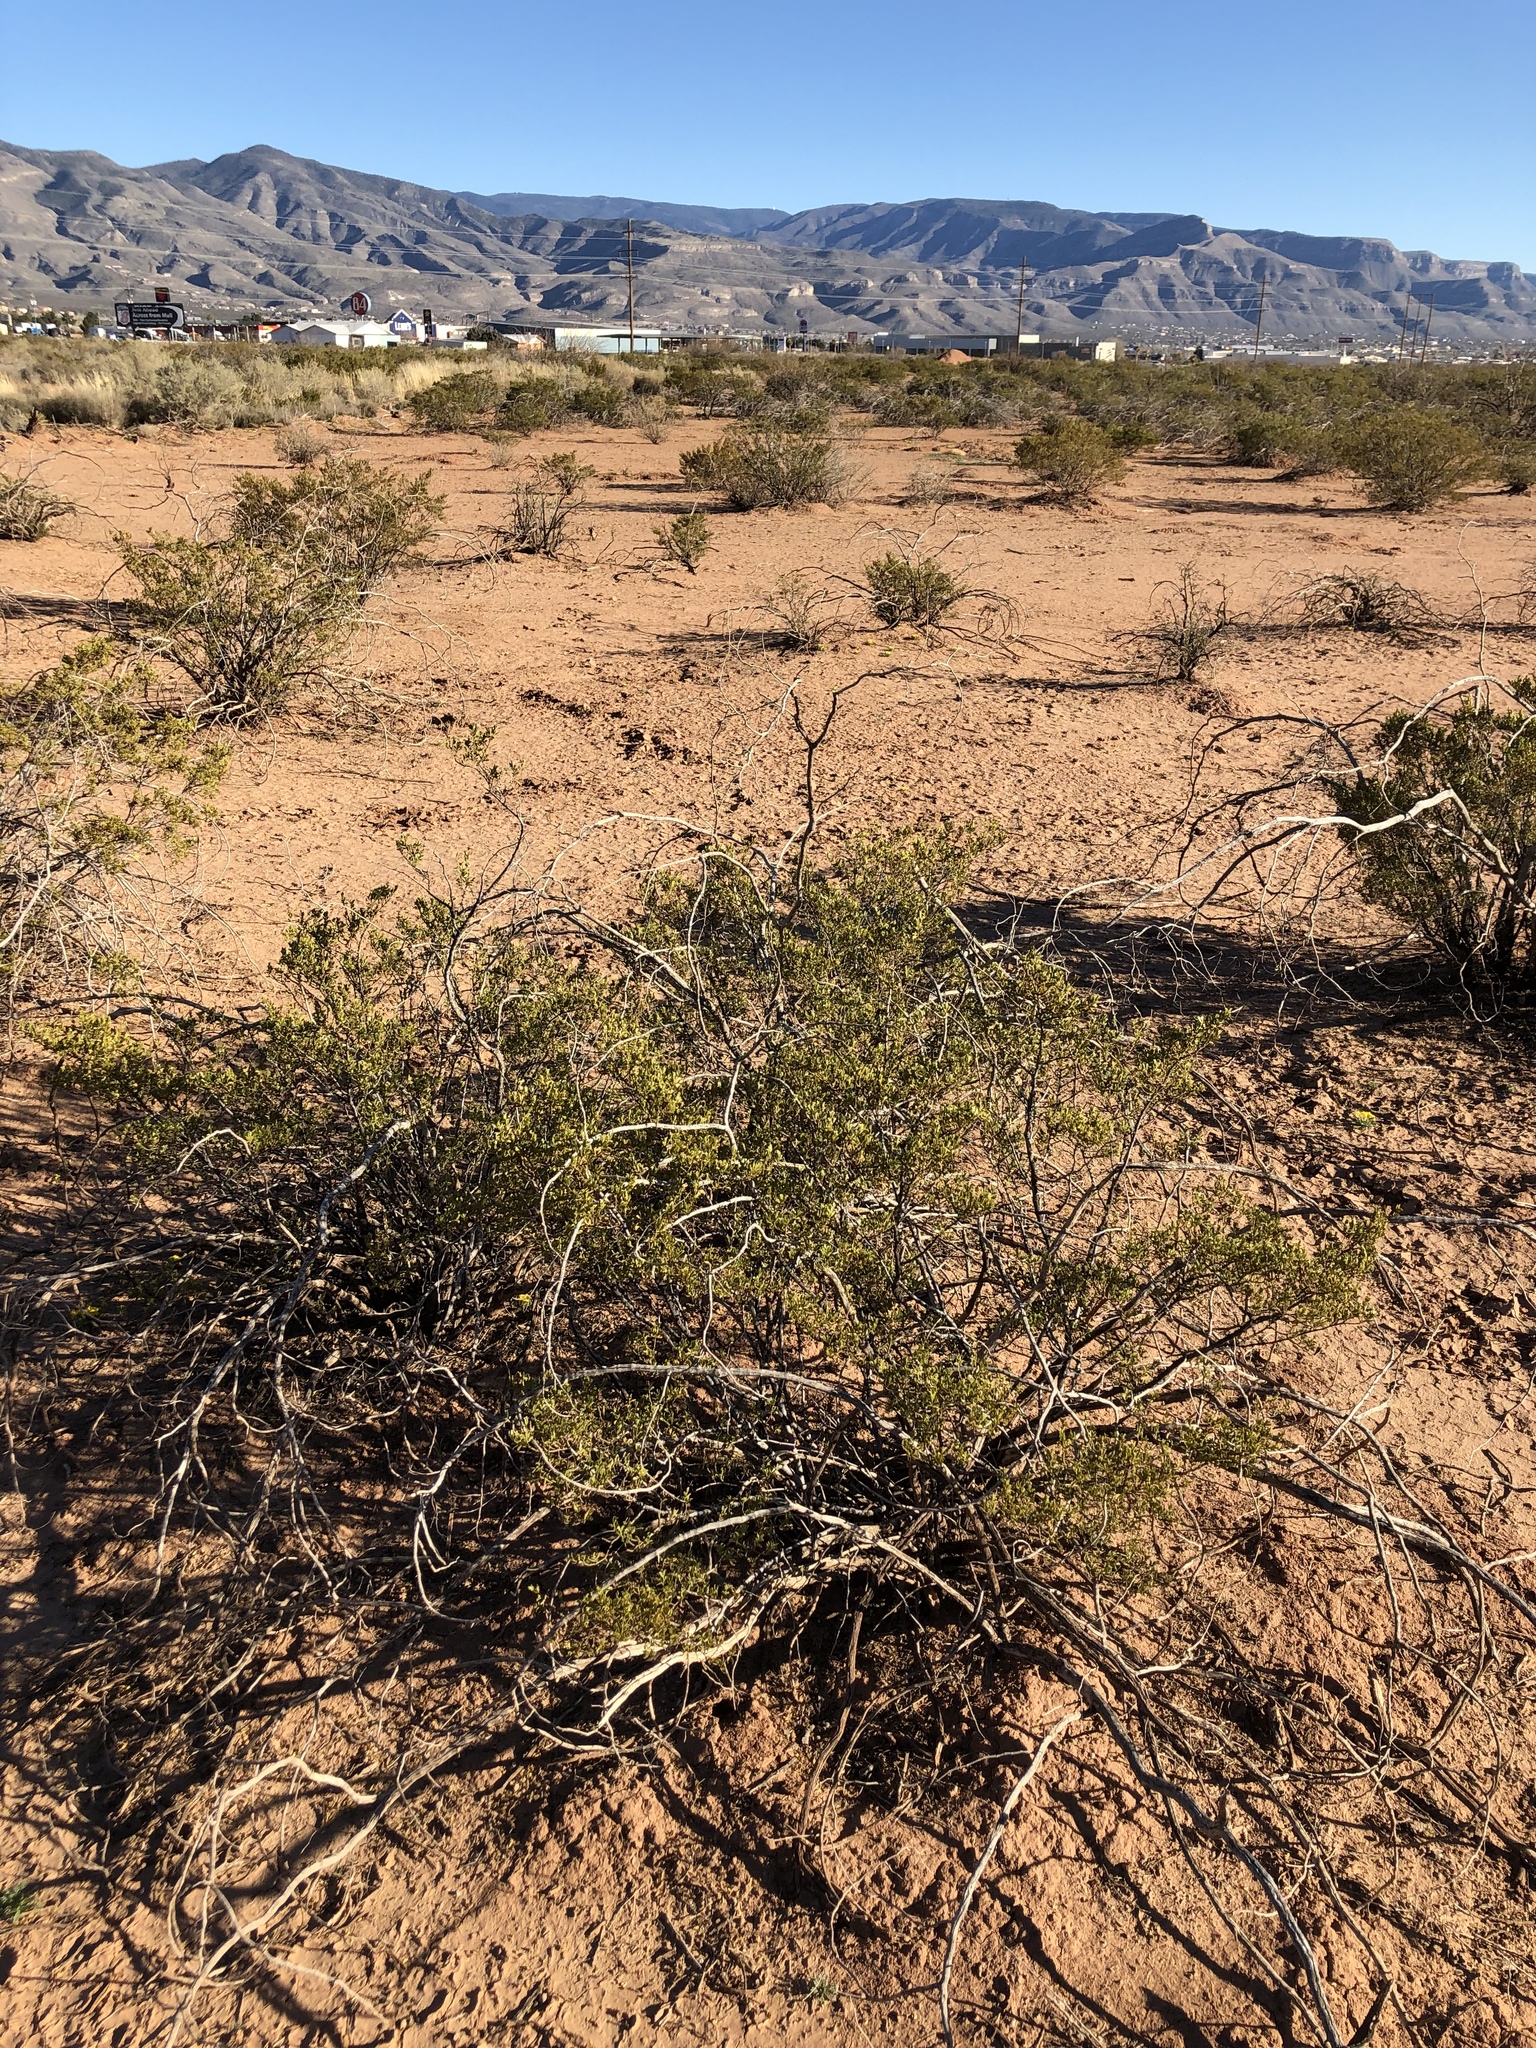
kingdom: Plantae
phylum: Tracheophyta
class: Magnoliopsida
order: Zygophyllales
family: Zygophyllaceae
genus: Larrea
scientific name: Larrea tridentata
